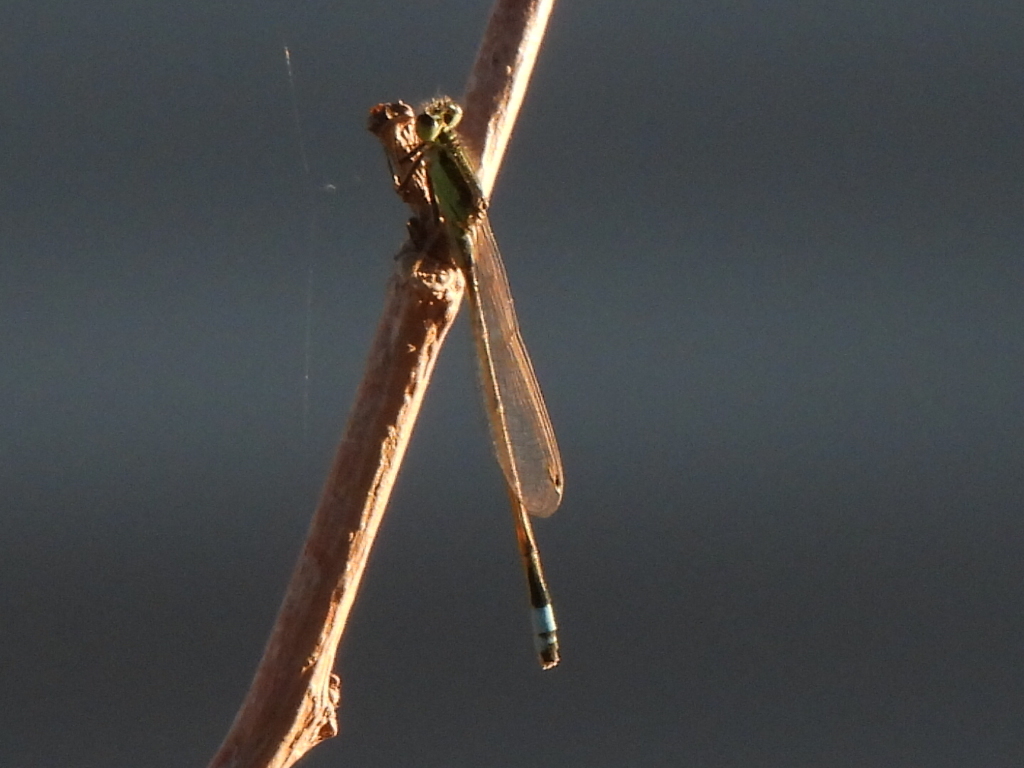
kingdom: Animalia
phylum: Arthropoda
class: Insecta
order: Odonata
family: Coenagrionidae
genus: Ischnura
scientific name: Ischnura ramburii
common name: Rambur's forktail
